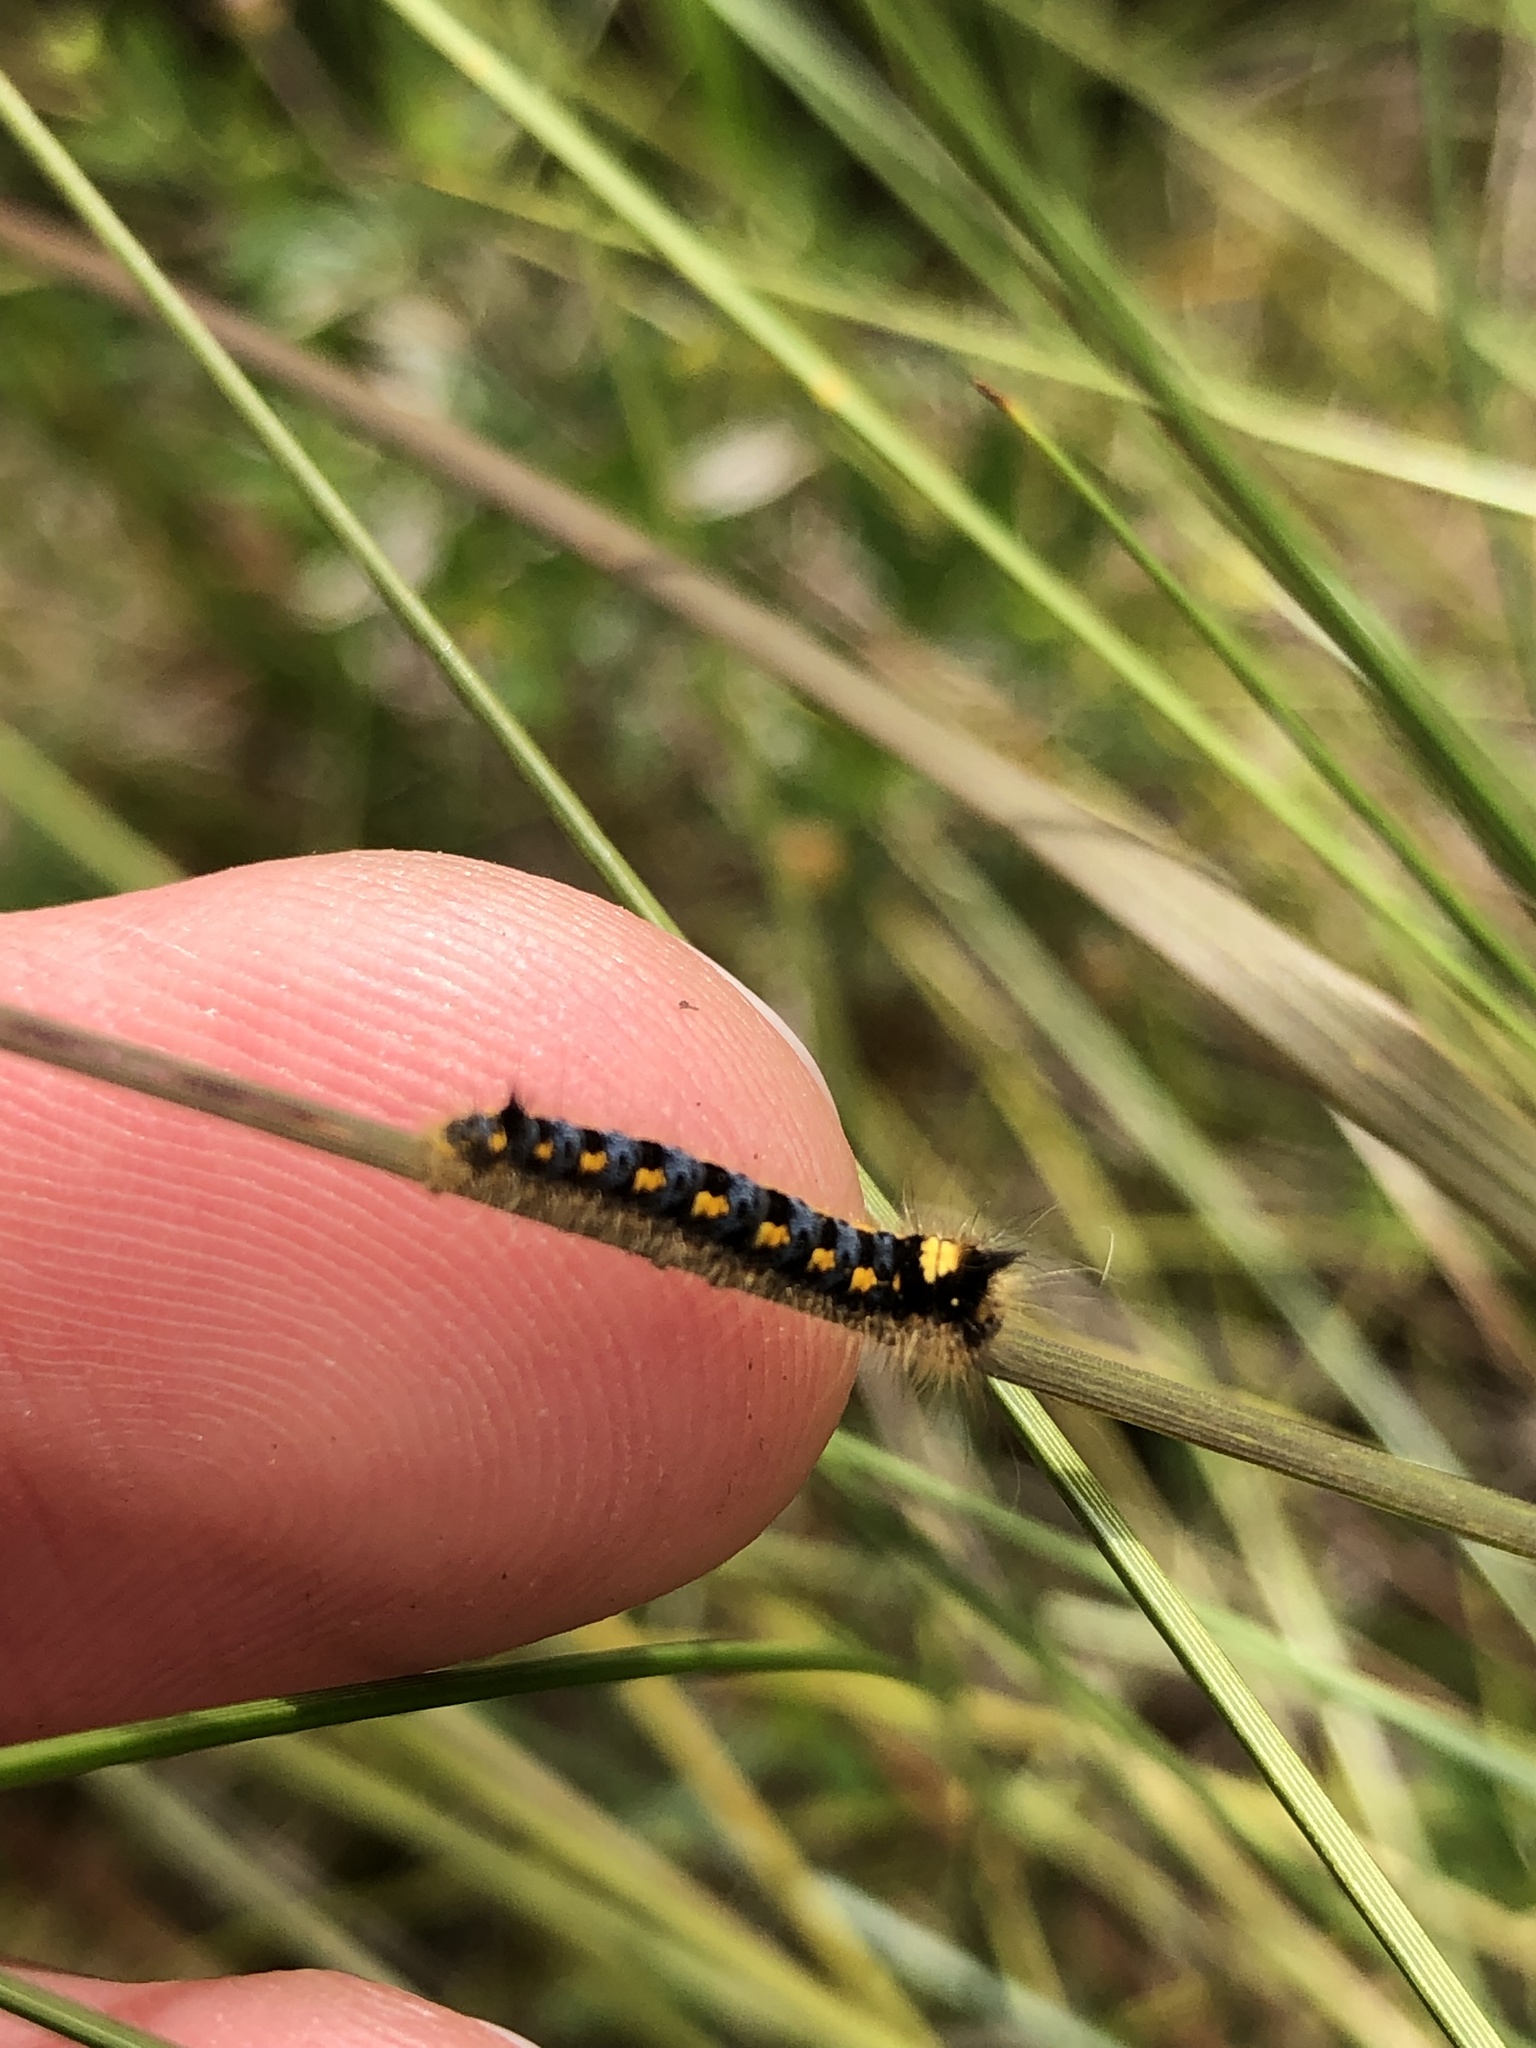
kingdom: Animalia
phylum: Arthropoda
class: Insecta
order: Lepidoptera
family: Lasiocampidae
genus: Euthrix
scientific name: Euthrix potatoria
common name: Drinker
